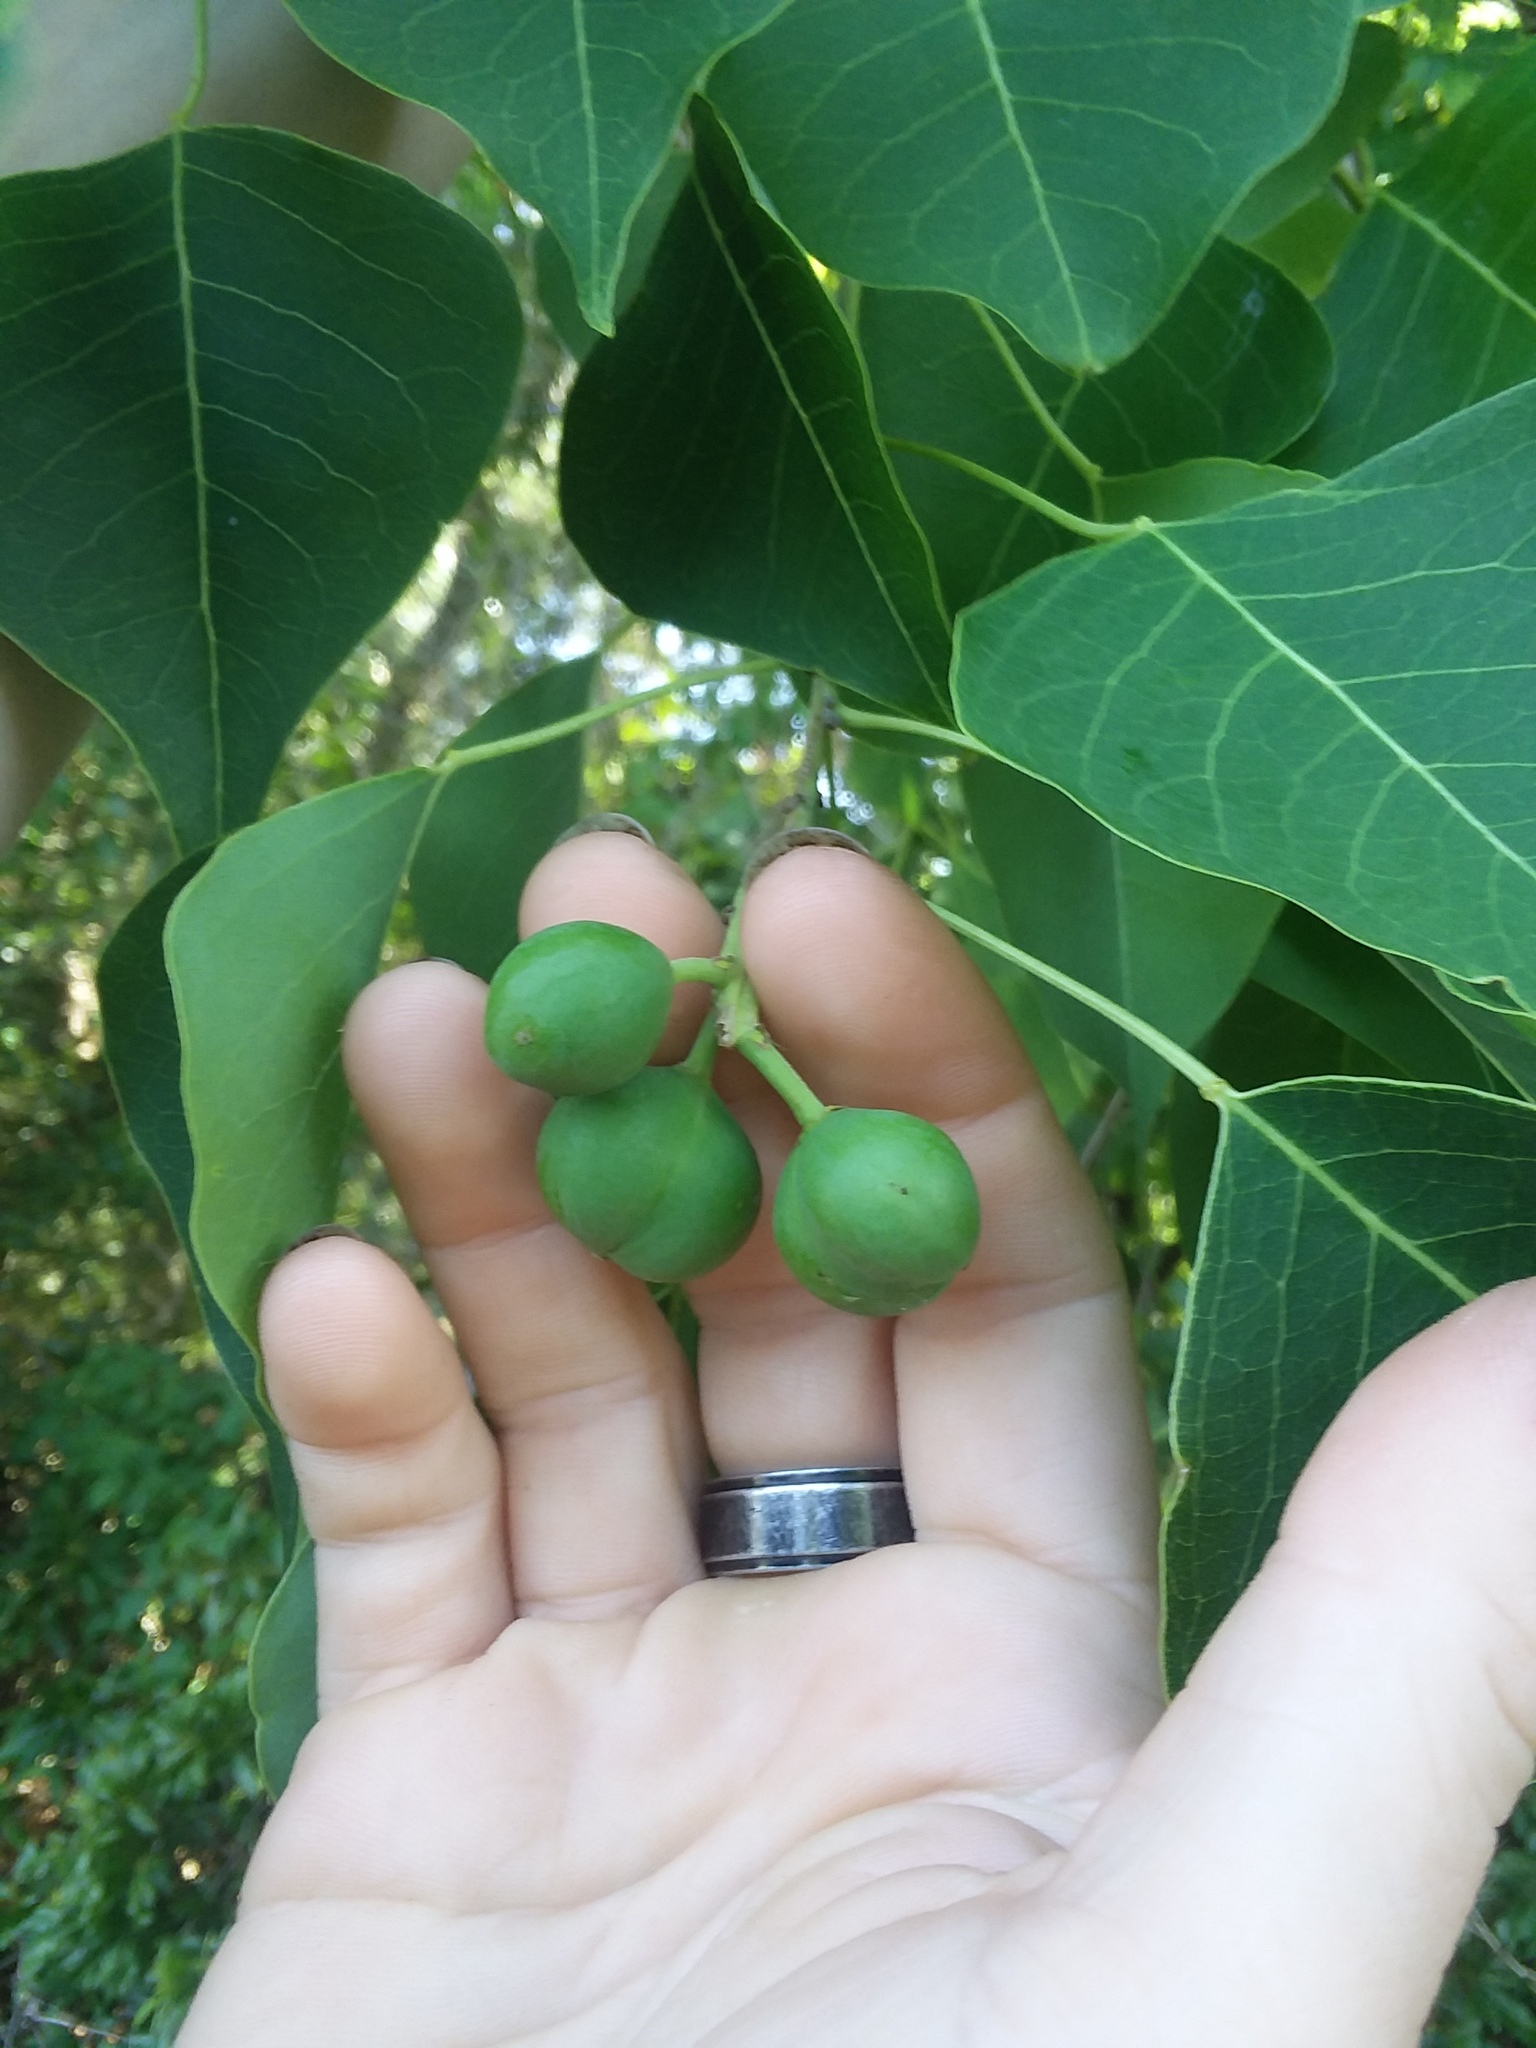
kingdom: Plantae
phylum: Tracheophyta
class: Magnoliopsida
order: Malpighiales
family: Euphorbiaceae
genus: Triadica
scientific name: Triadica sebifera
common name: Chinese tallow
